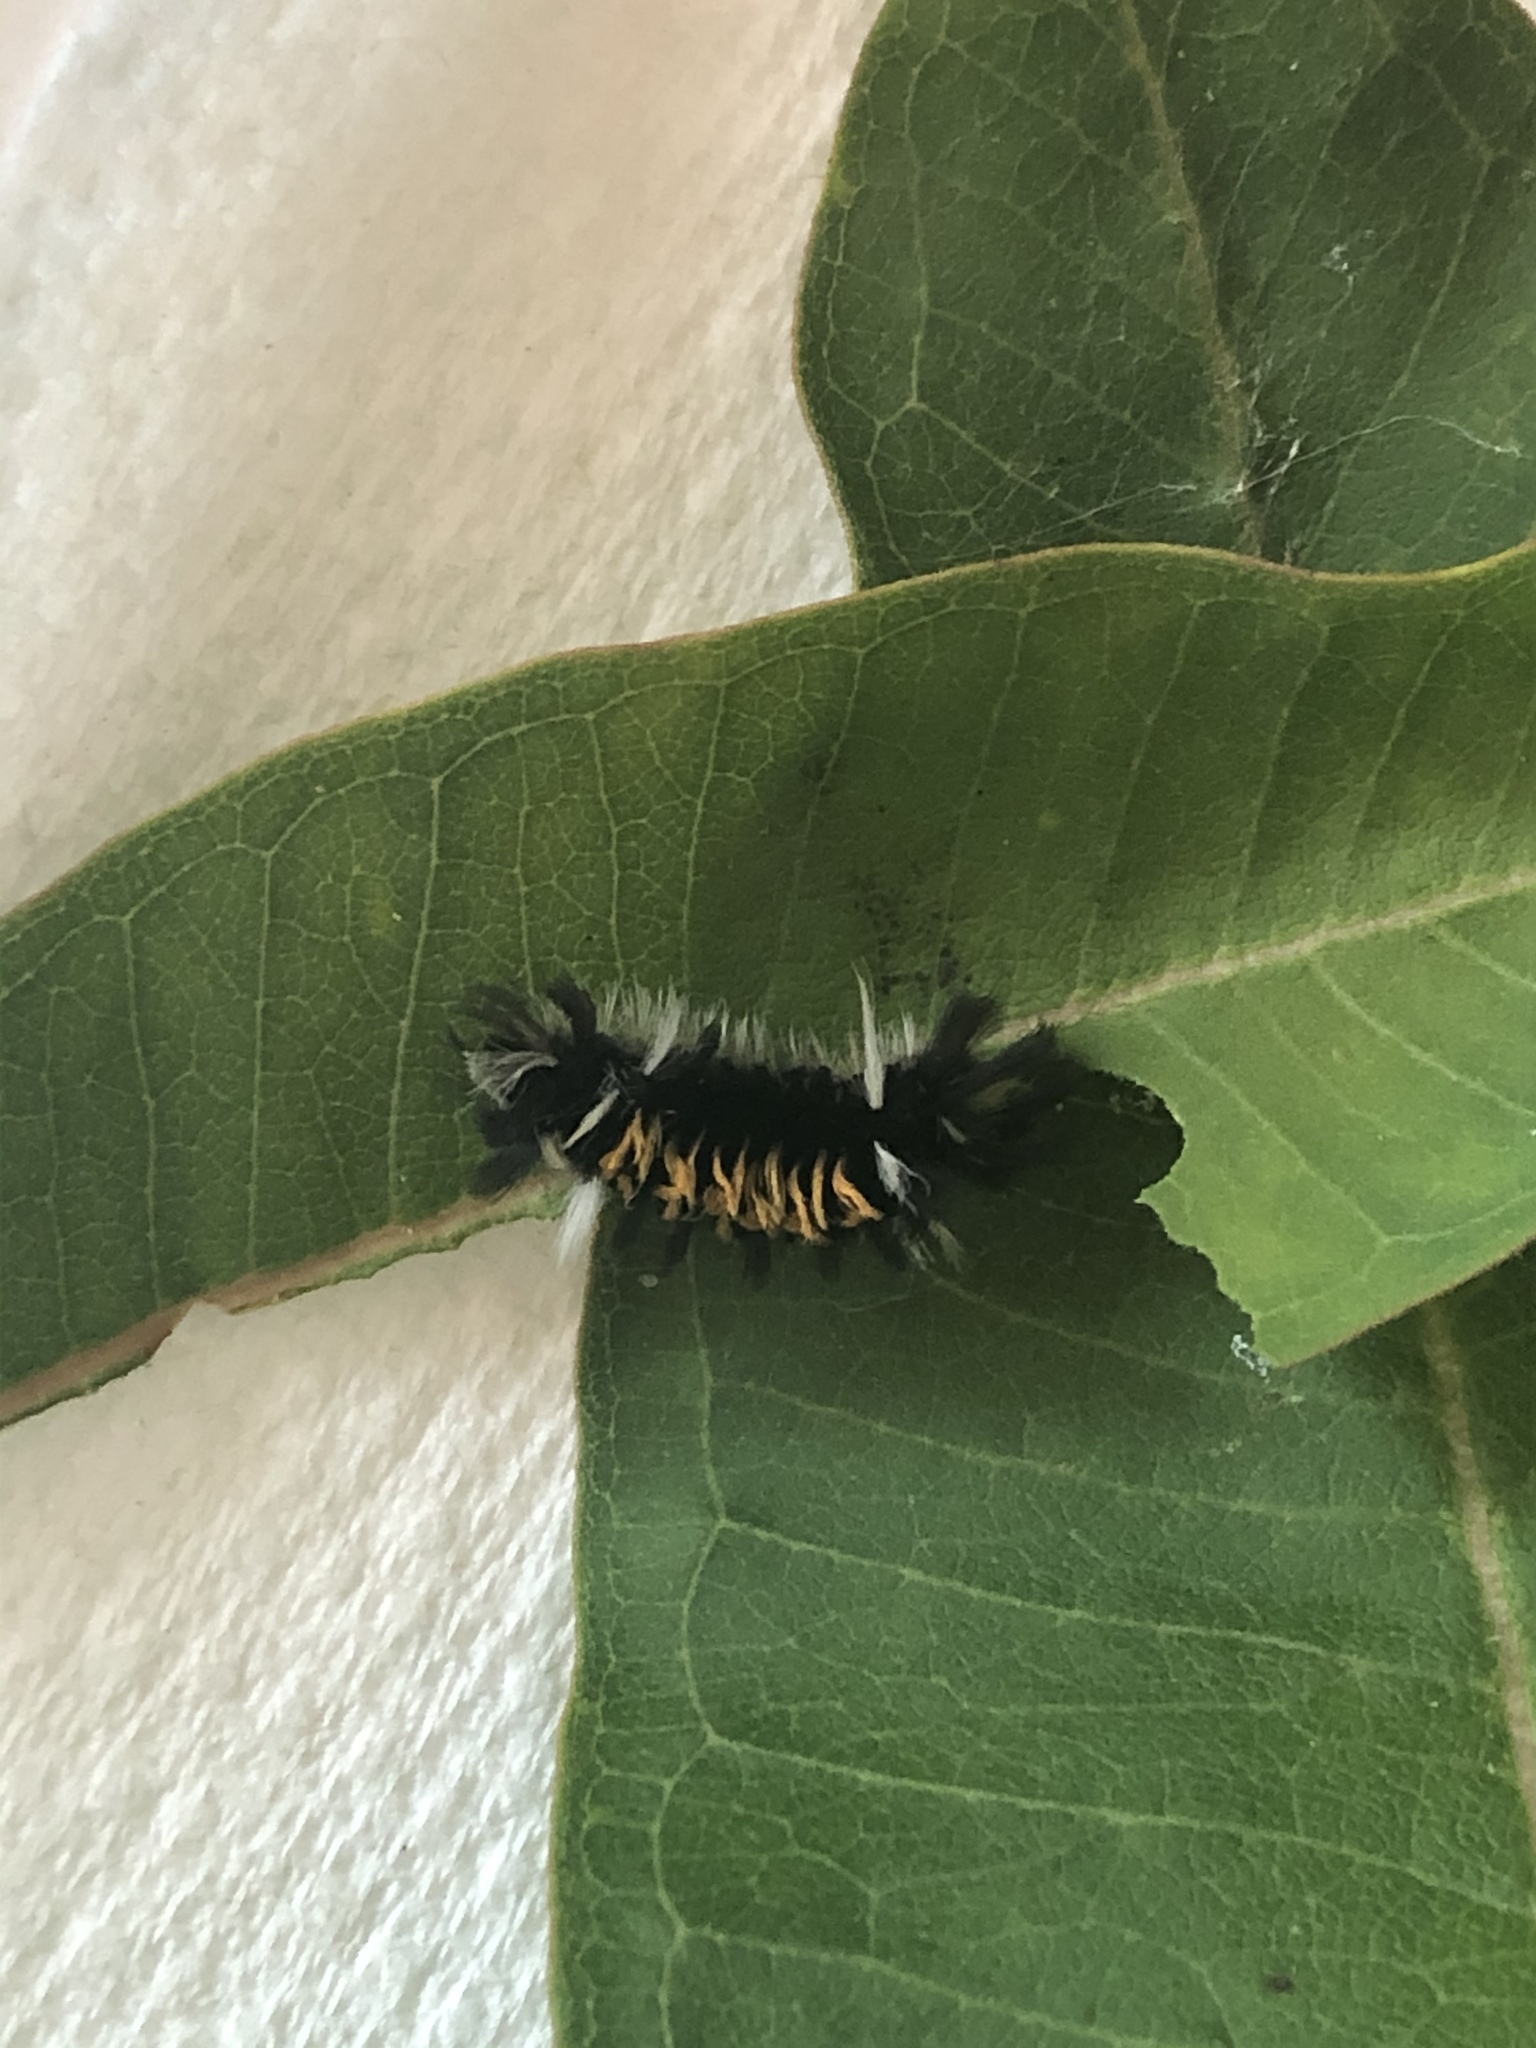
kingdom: Animalia
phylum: Arthropoda
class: Insecta
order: Lepidoptera
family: Erebidae
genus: Euchaetes
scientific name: Euchaetes egle
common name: Milkweed tussock moth
